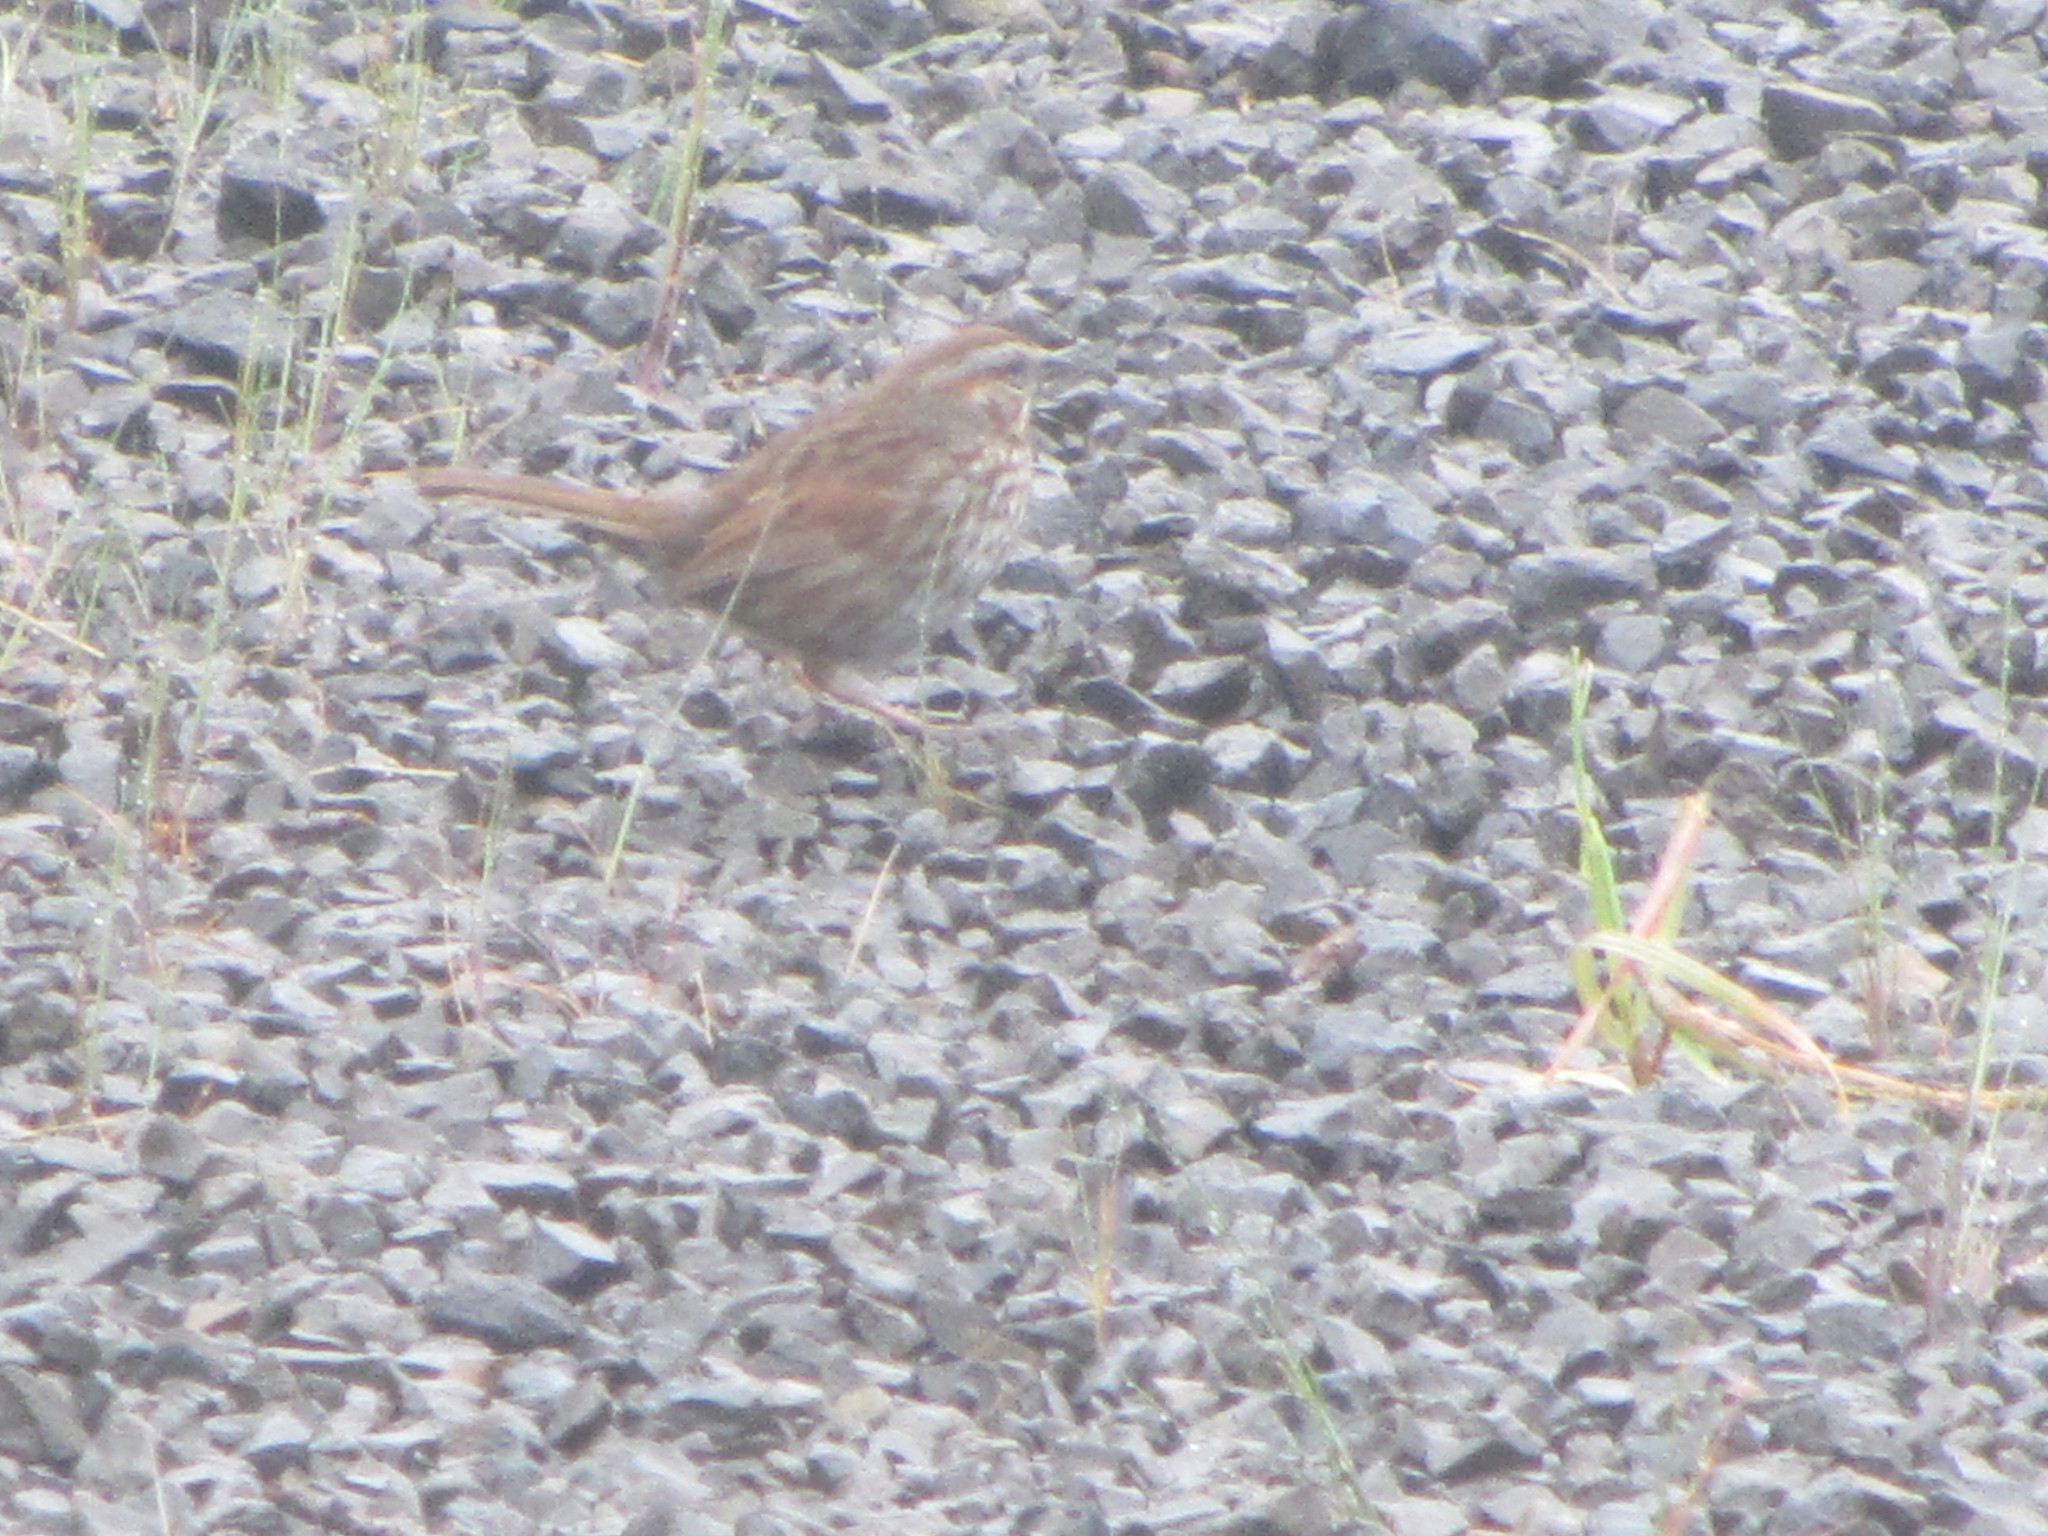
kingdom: Animalia
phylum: Chordata
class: Aves
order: Passeriformes
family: Passerellidae
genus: Melospiza
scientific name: Melospiza melodia
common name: Song sparrow
